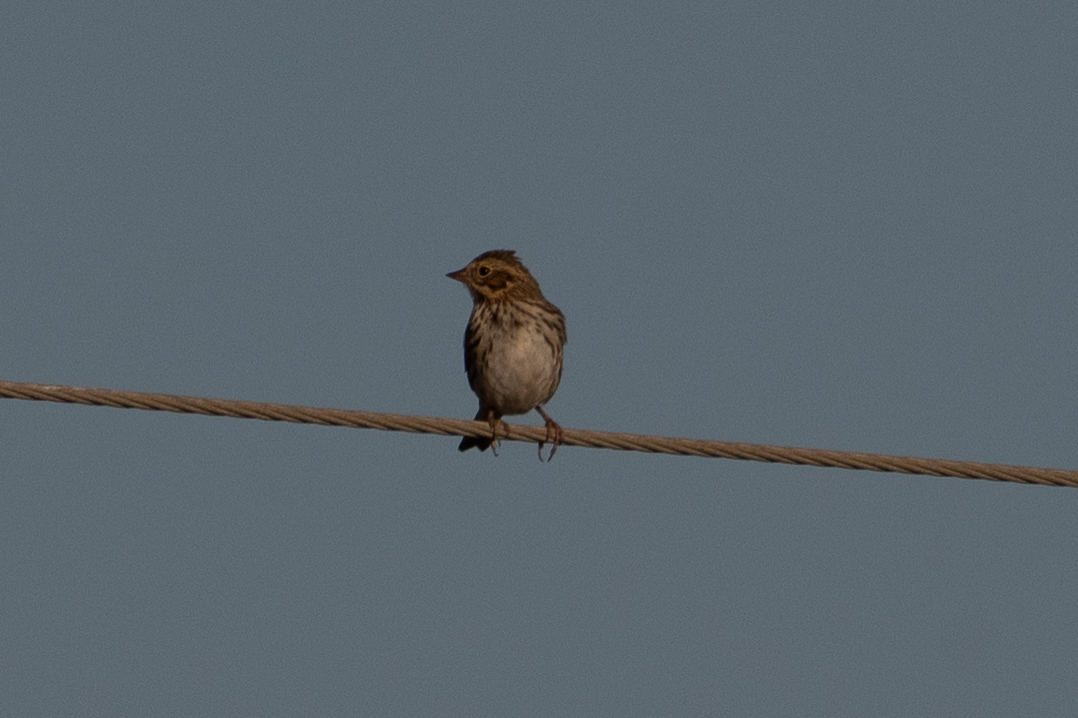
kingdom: Animalia
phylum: Chordata
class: Aves
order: Passeriformes
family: Passerellidae
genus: Passerculus
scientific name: Passerculus sandwichensis
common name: Savannah sparrow
